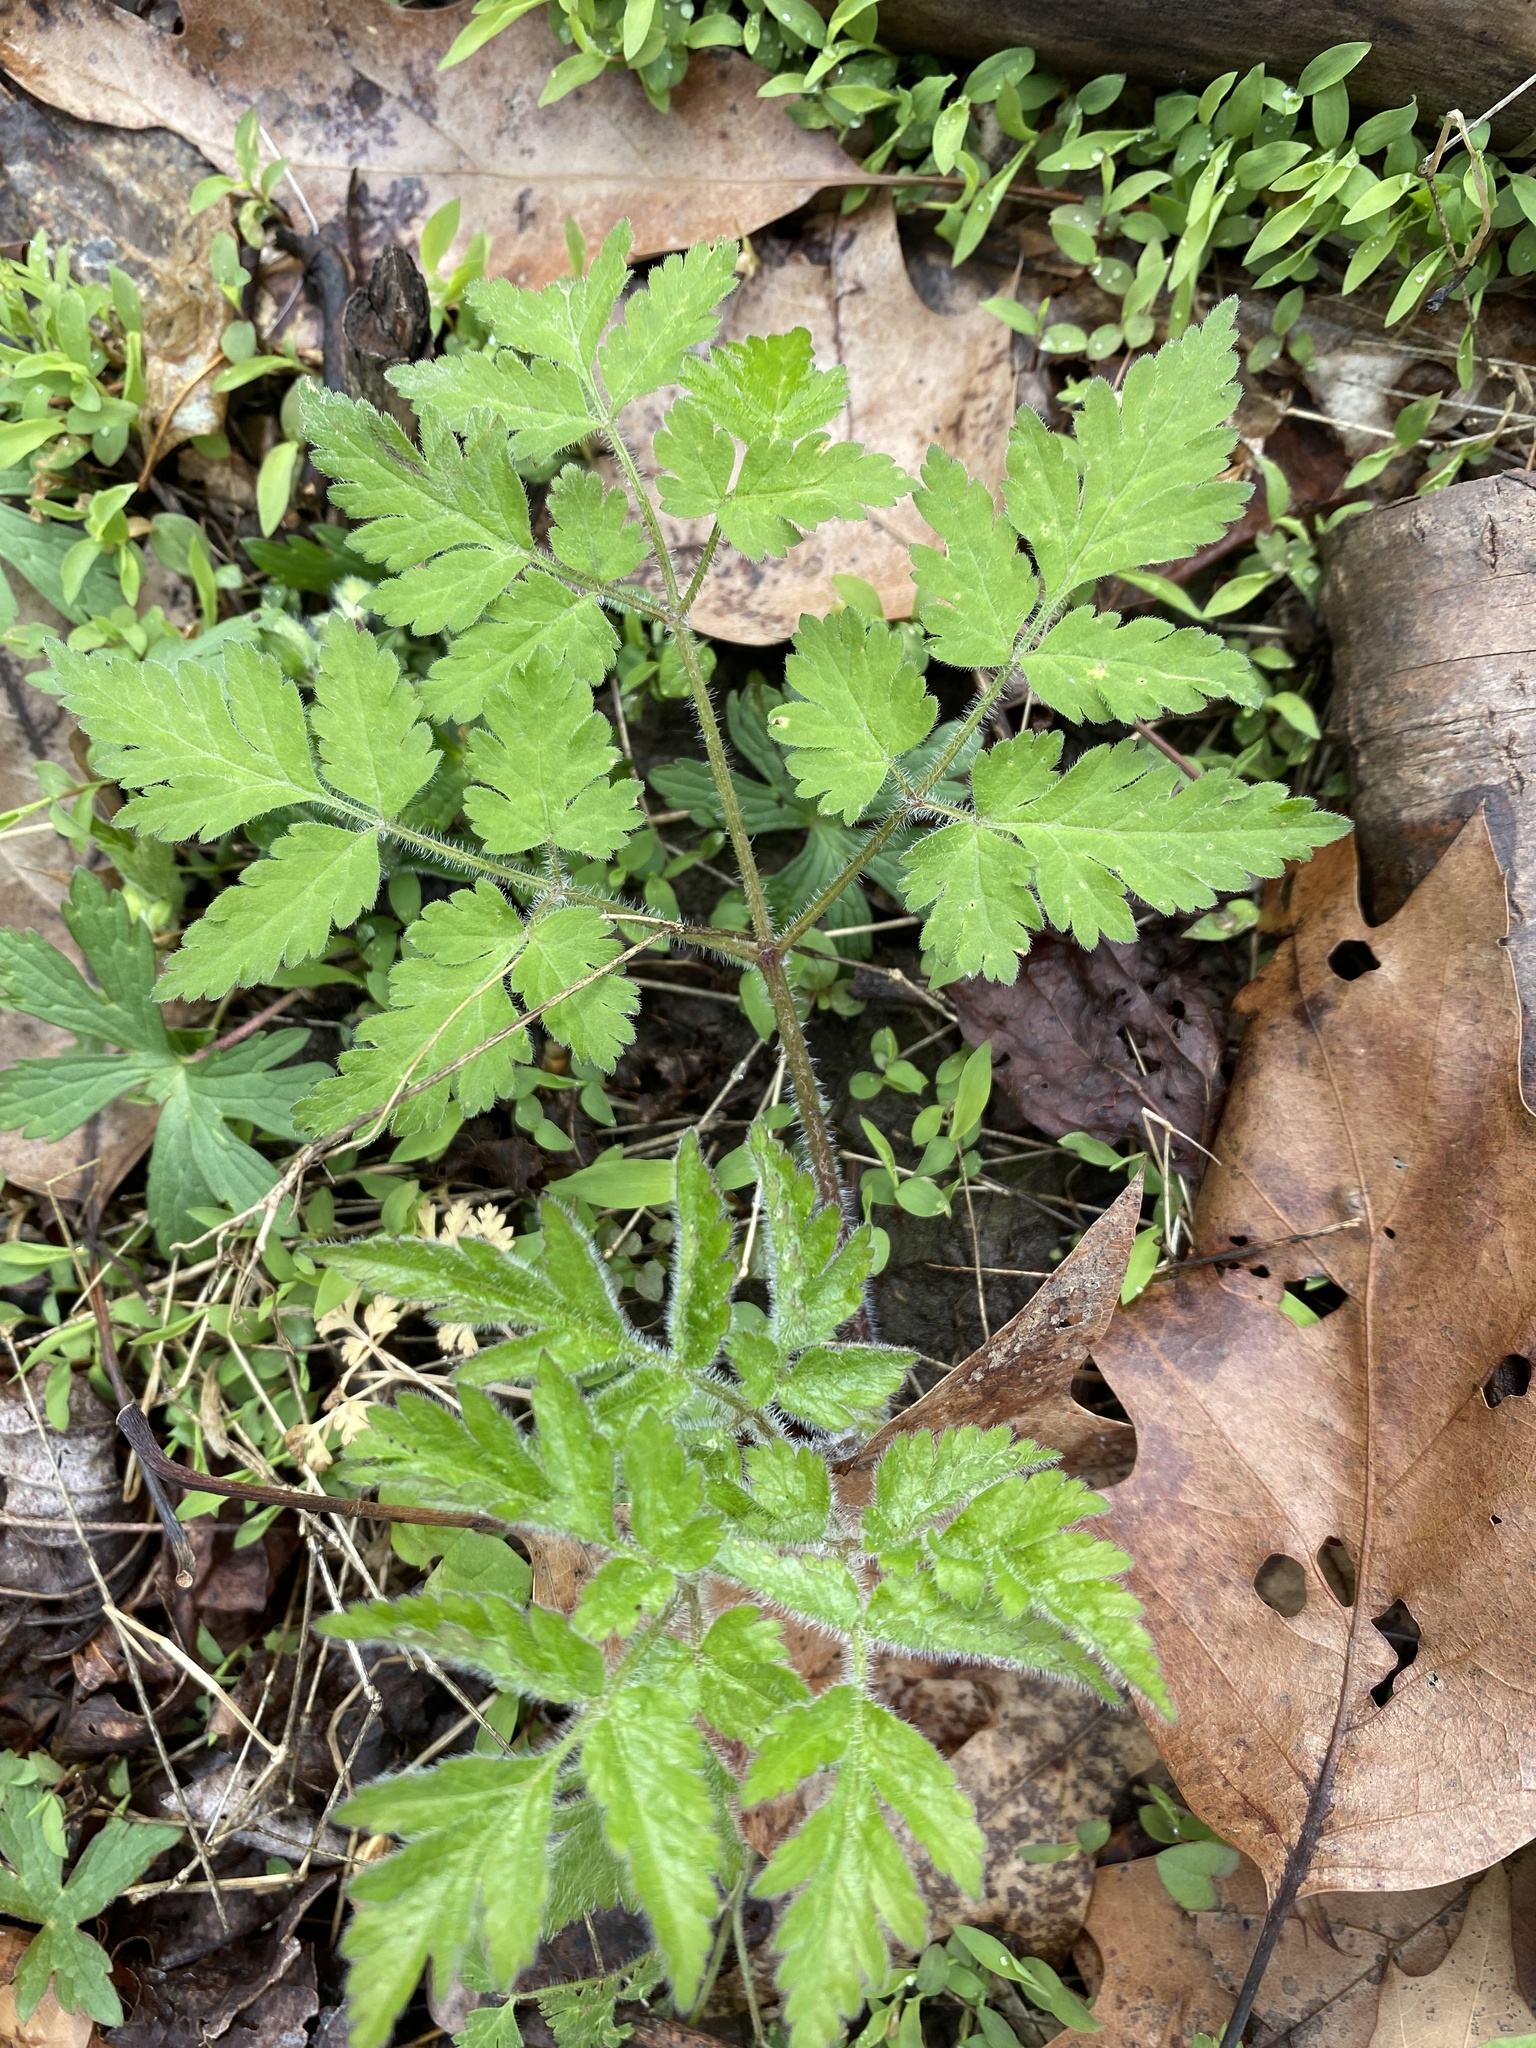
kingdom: Plantae
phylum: Tracheophyta
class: Magnoliopsida
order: Apiales
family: Apiaceae
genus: Osmorhiza
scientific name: Osmorhiza claytonii
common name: Hairy sweet cicely
